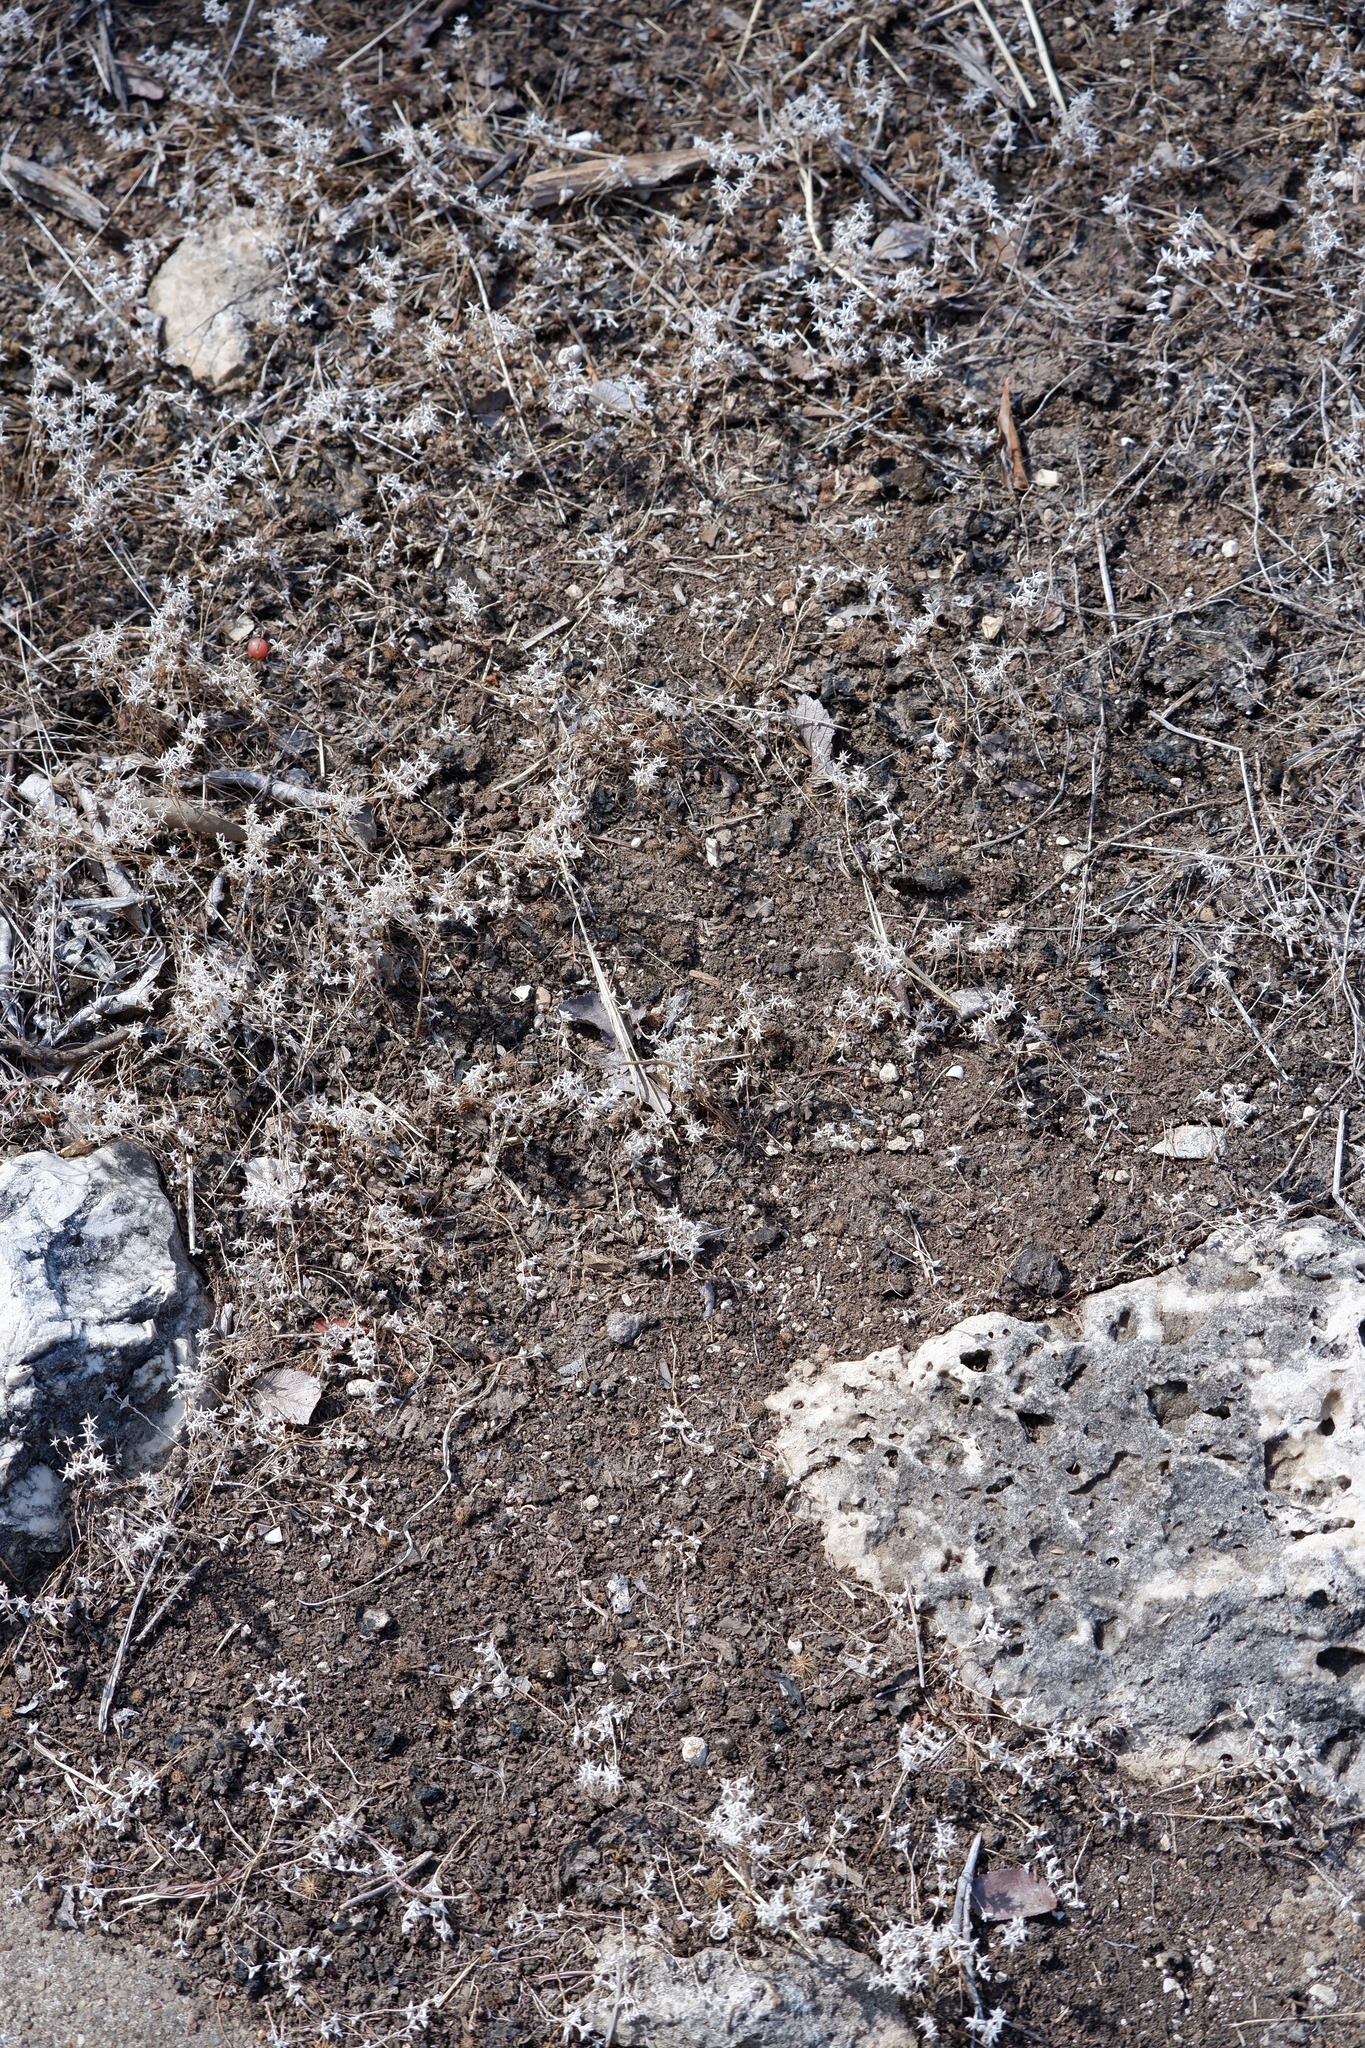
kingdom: Plantae
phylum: Tracheophyta
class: Magnoliopsida
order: Saxifragales
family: Crassulaceae
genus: Sedum
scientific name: Sedum nuttallii
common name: Yellow stonecrop
